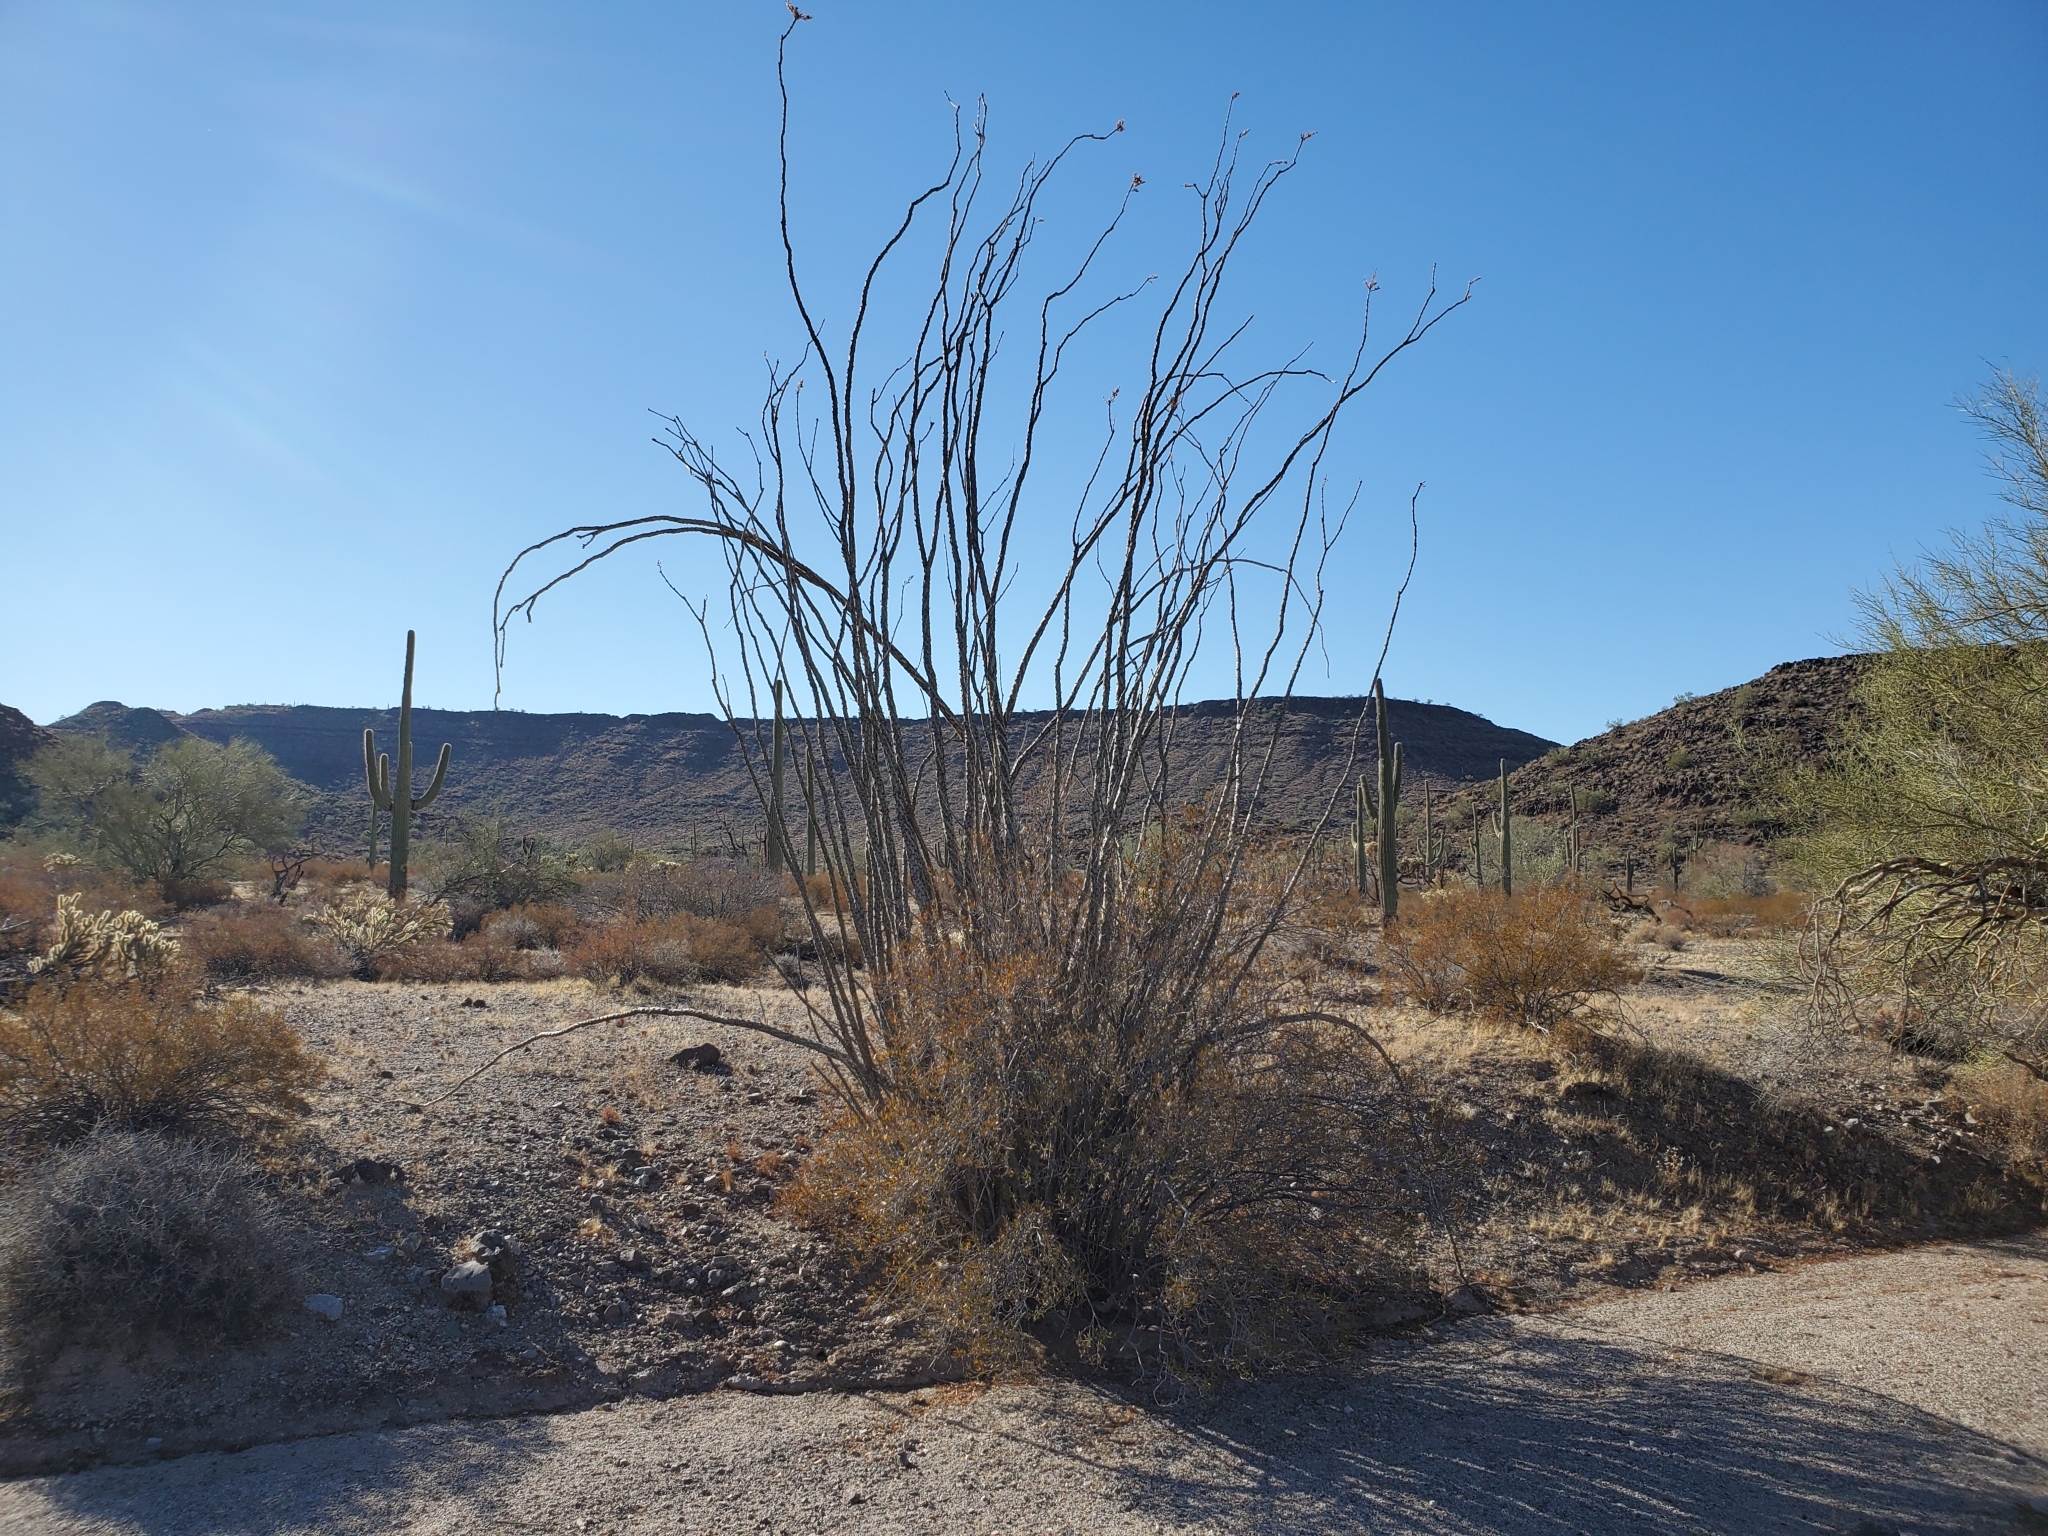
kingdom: Plantae
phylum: Tracheophyta
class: Magnoliopsida
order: Ericales
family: Fouquieriaceae
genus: Fouquieria
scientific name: Fouquieria splendens
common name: Vine-cactus
